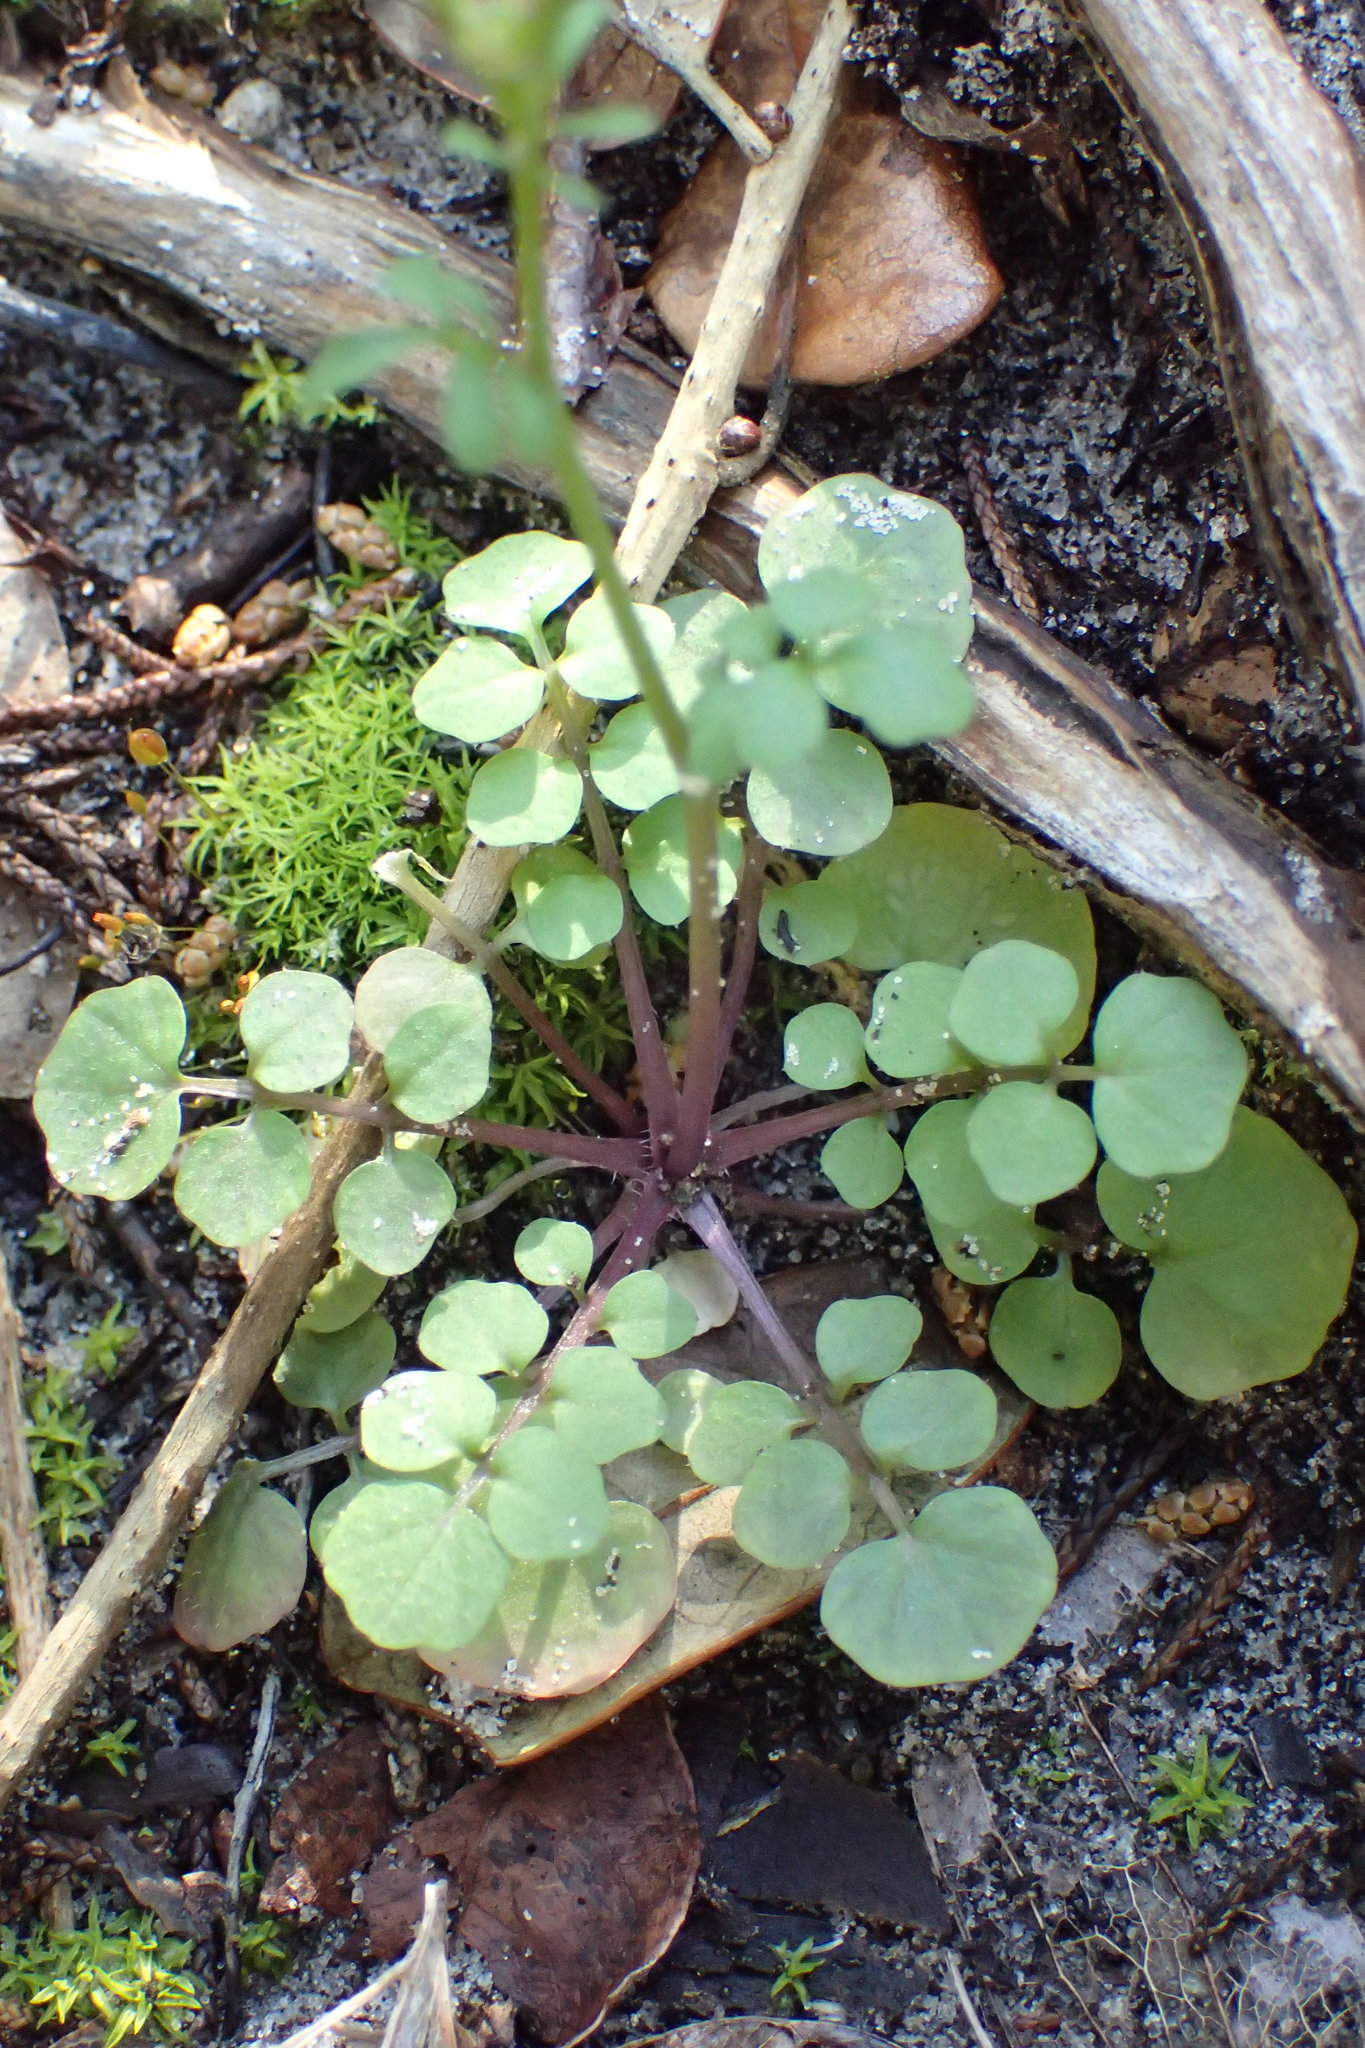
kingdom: Plantae
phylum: Tracheophyta
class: Magnoliopsida
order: Brassicales
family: Brassicaceae
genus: Cardamine
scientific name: Cardamine hirsuta
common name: Hairy bittercress
